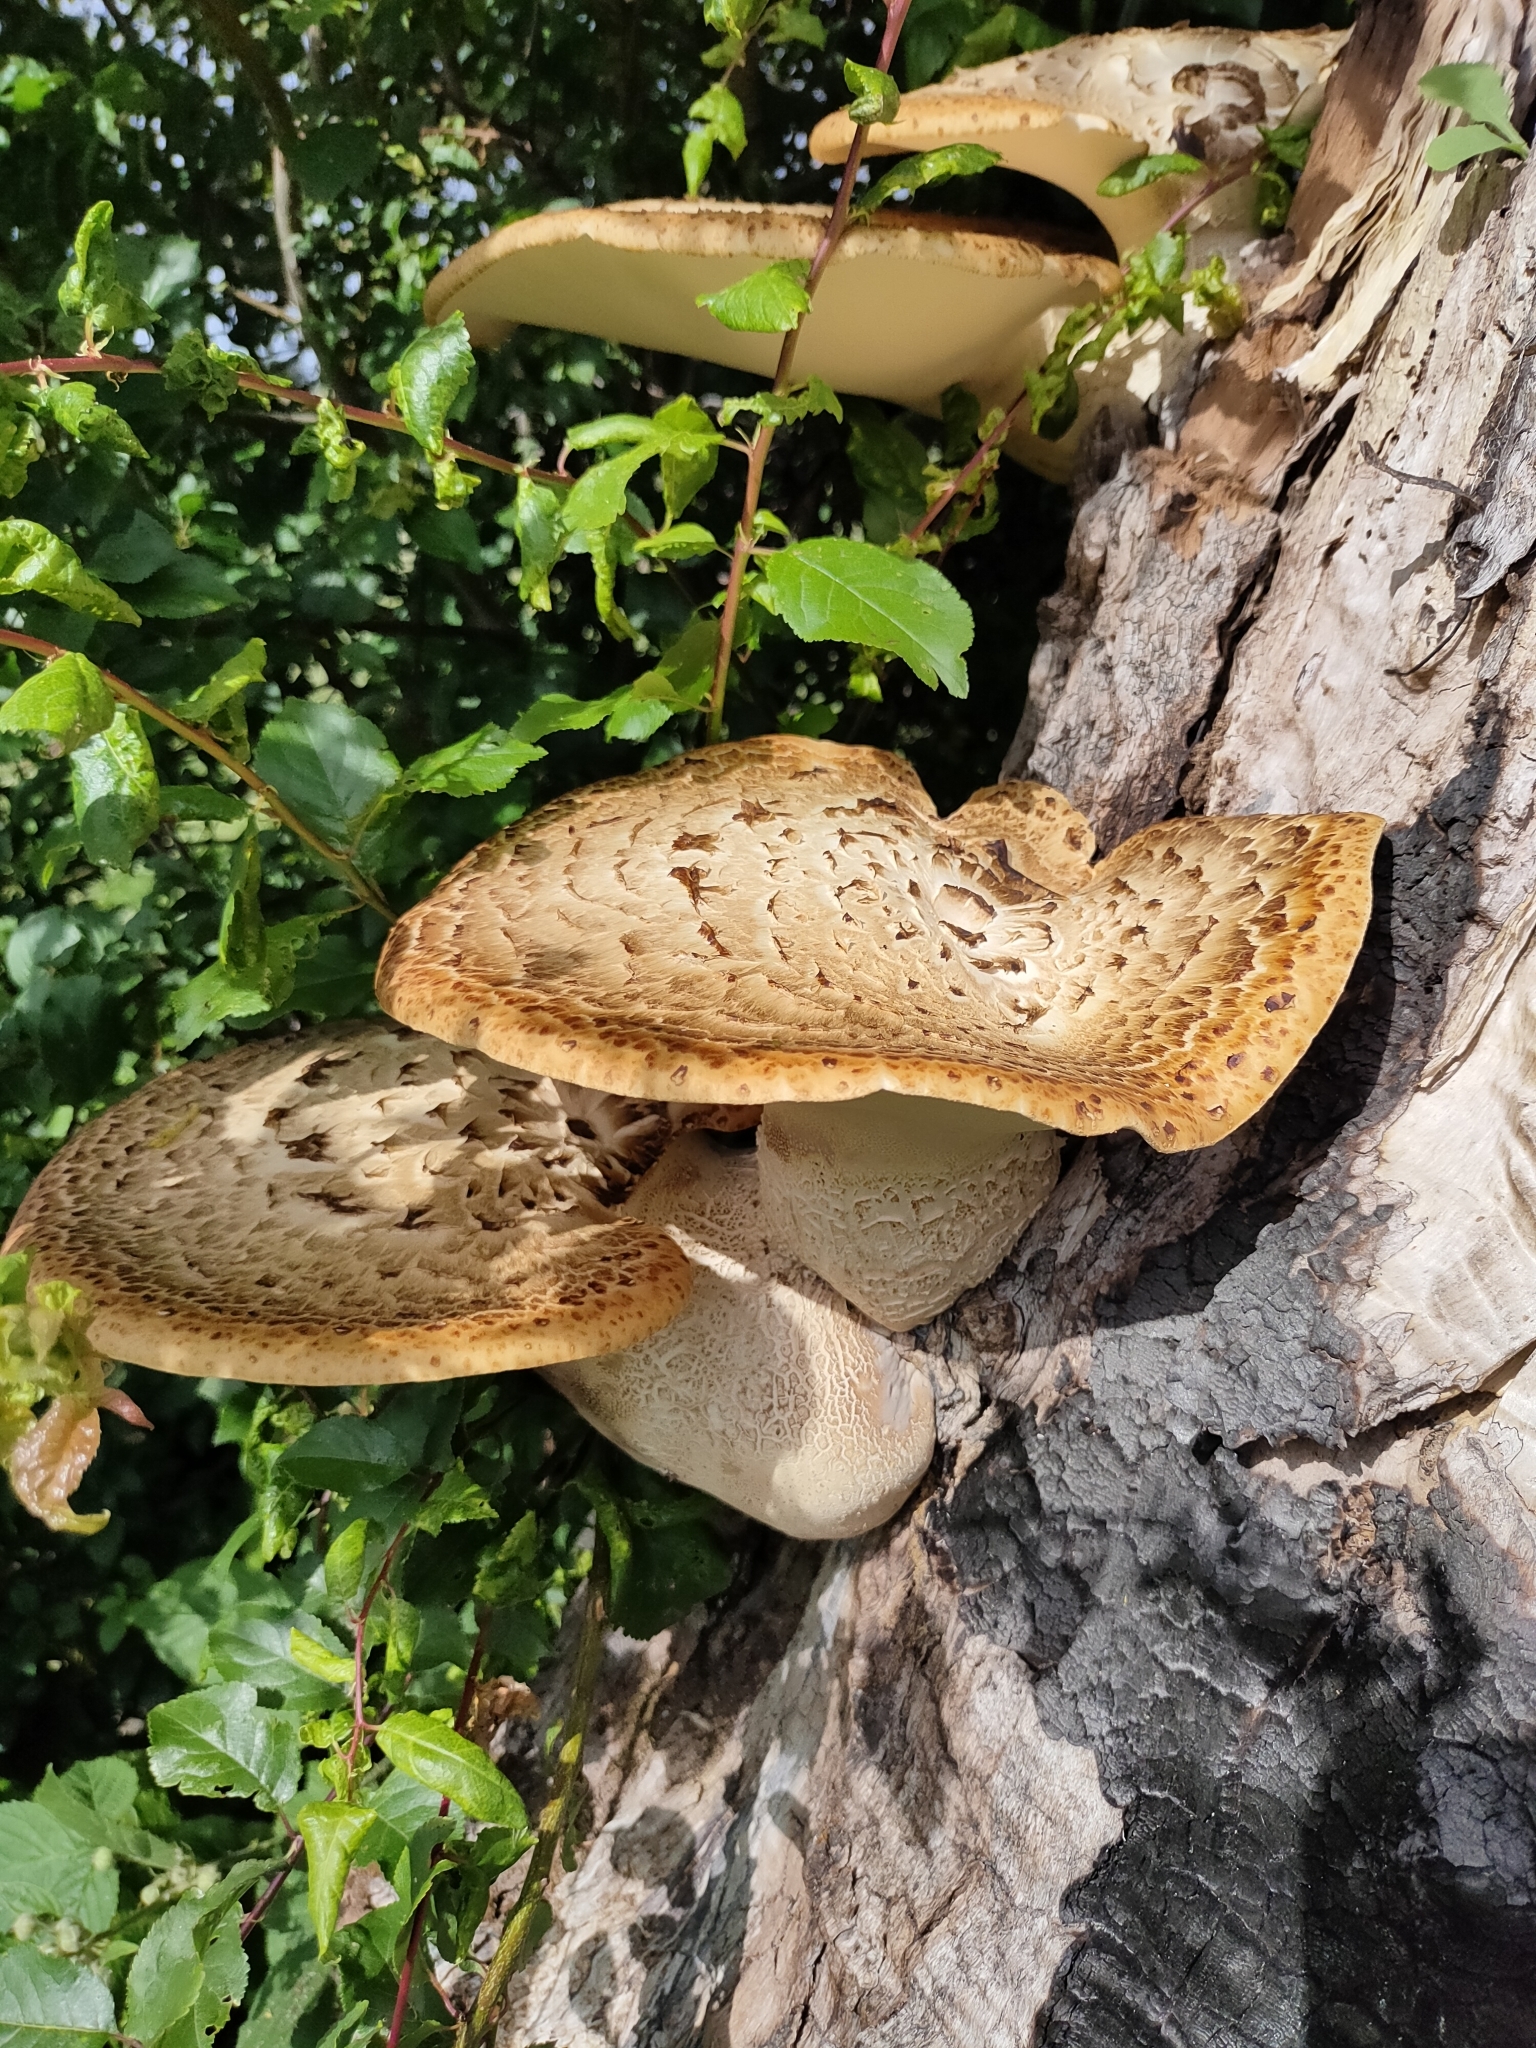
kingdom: Fungi
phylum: Basidiomycota
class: Agaricomycetes
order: Polyporales
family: Polyporaceae
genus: Cerioporus
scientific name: Cerioporus squamosus
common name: Dryad's saddle
